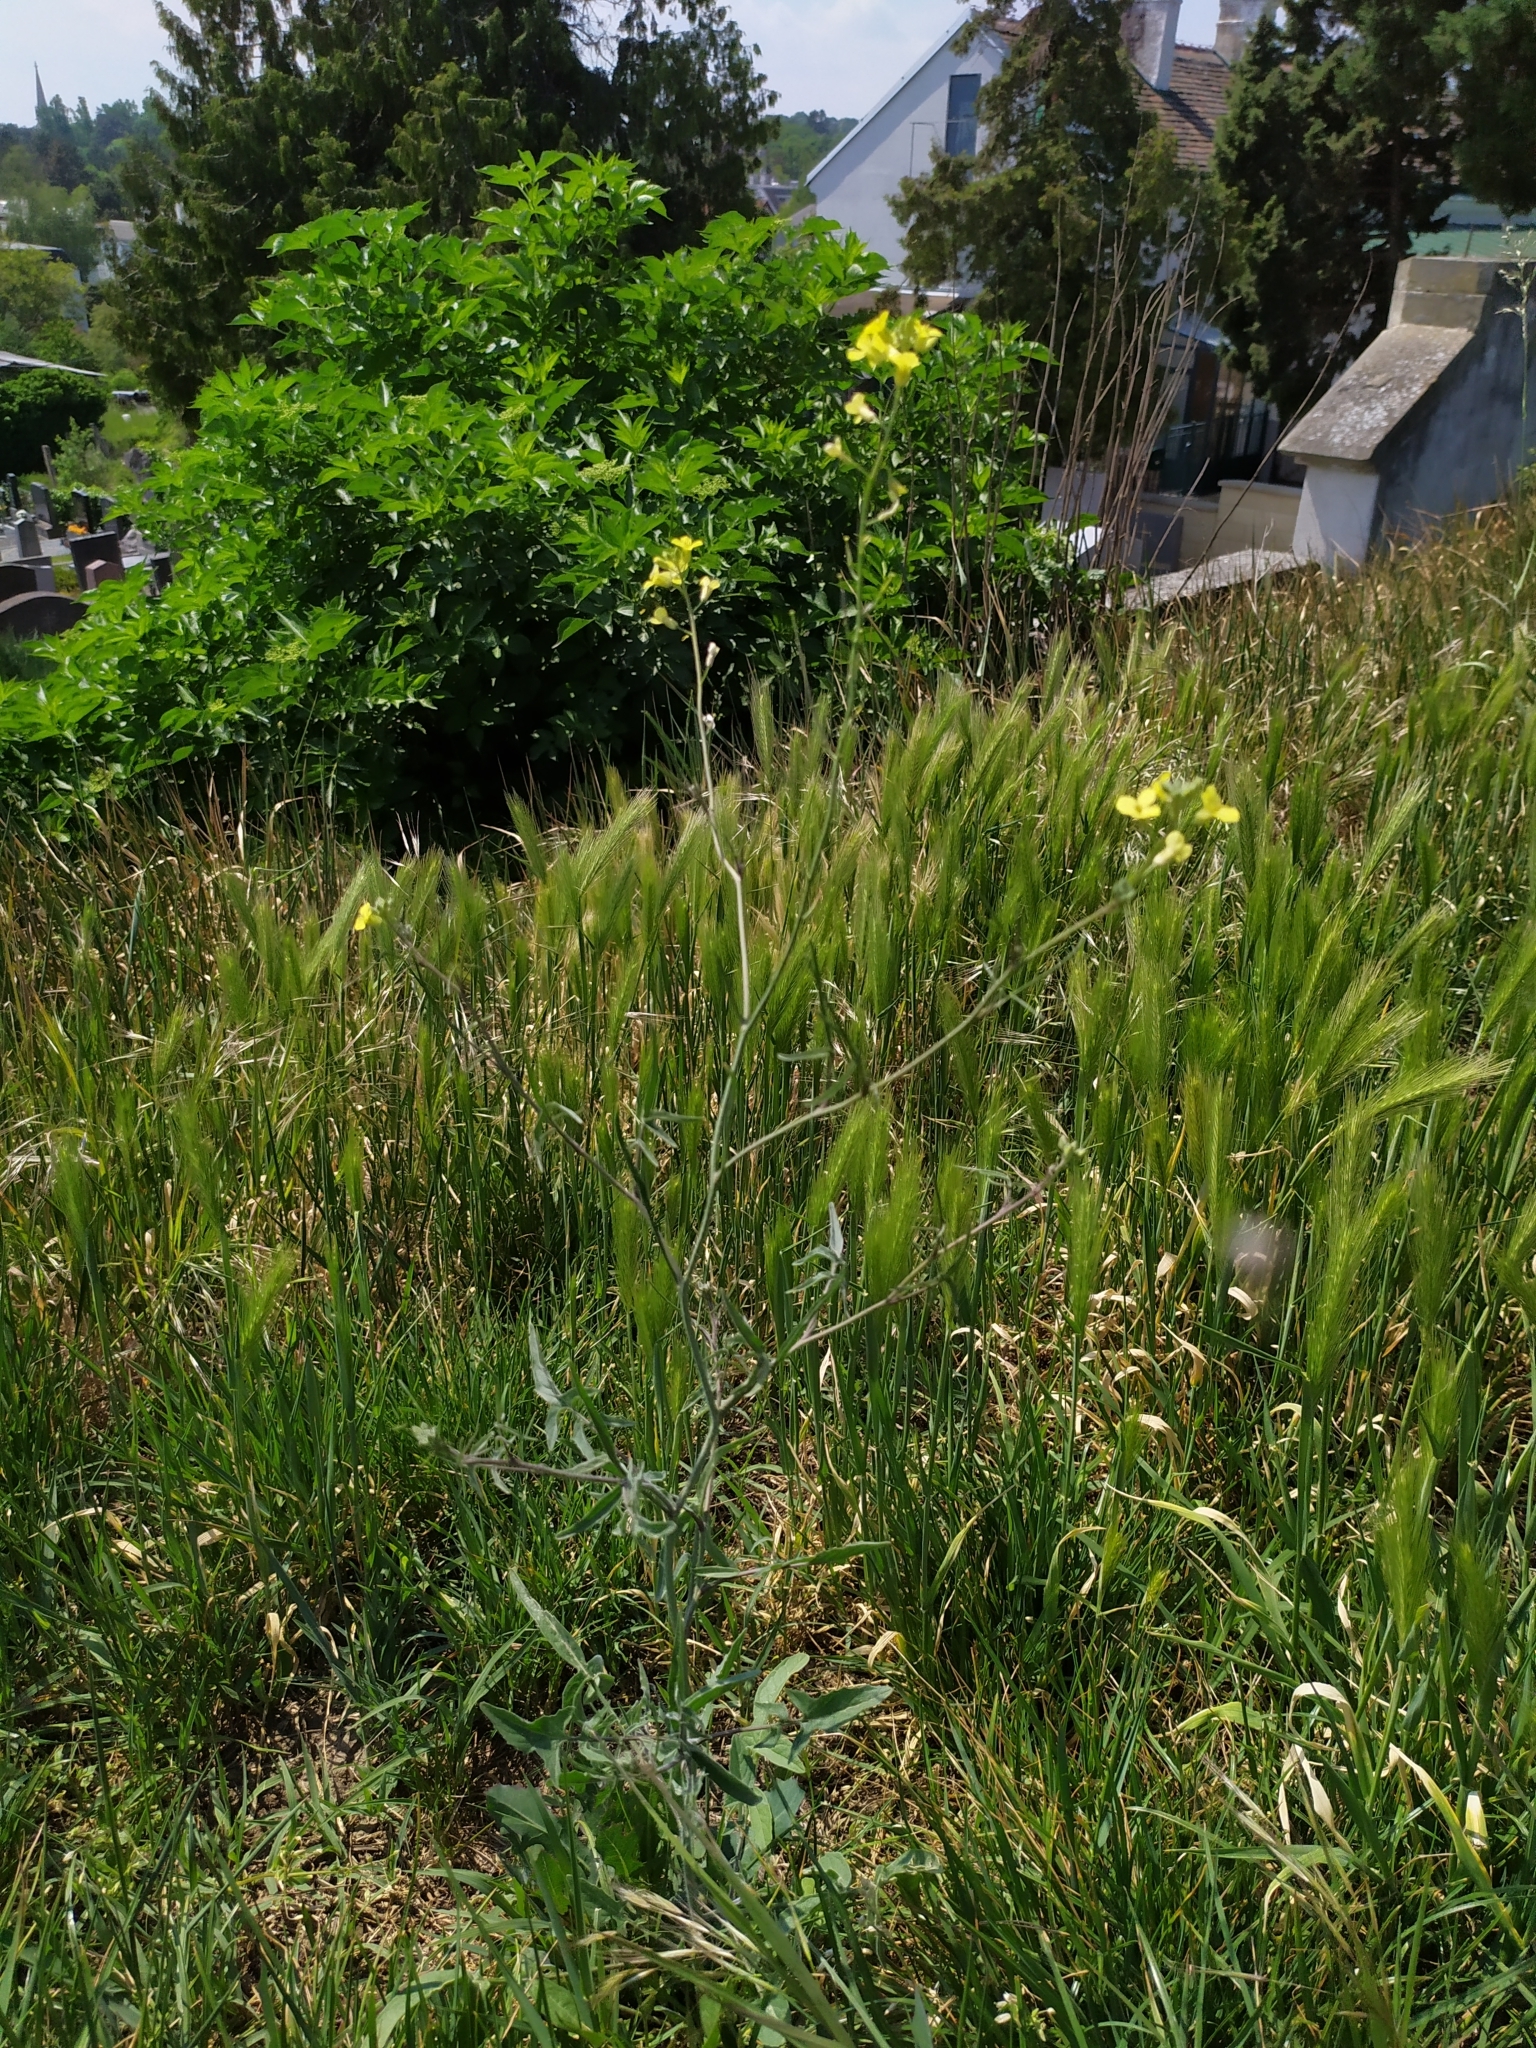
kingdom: Plantae
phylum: Tracheophyta
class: Magnoliopsida
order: Brassicales
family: Brassicaceae
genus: Sisymbrium
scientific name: Sisymbrium orientale
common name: Eastern rocket
